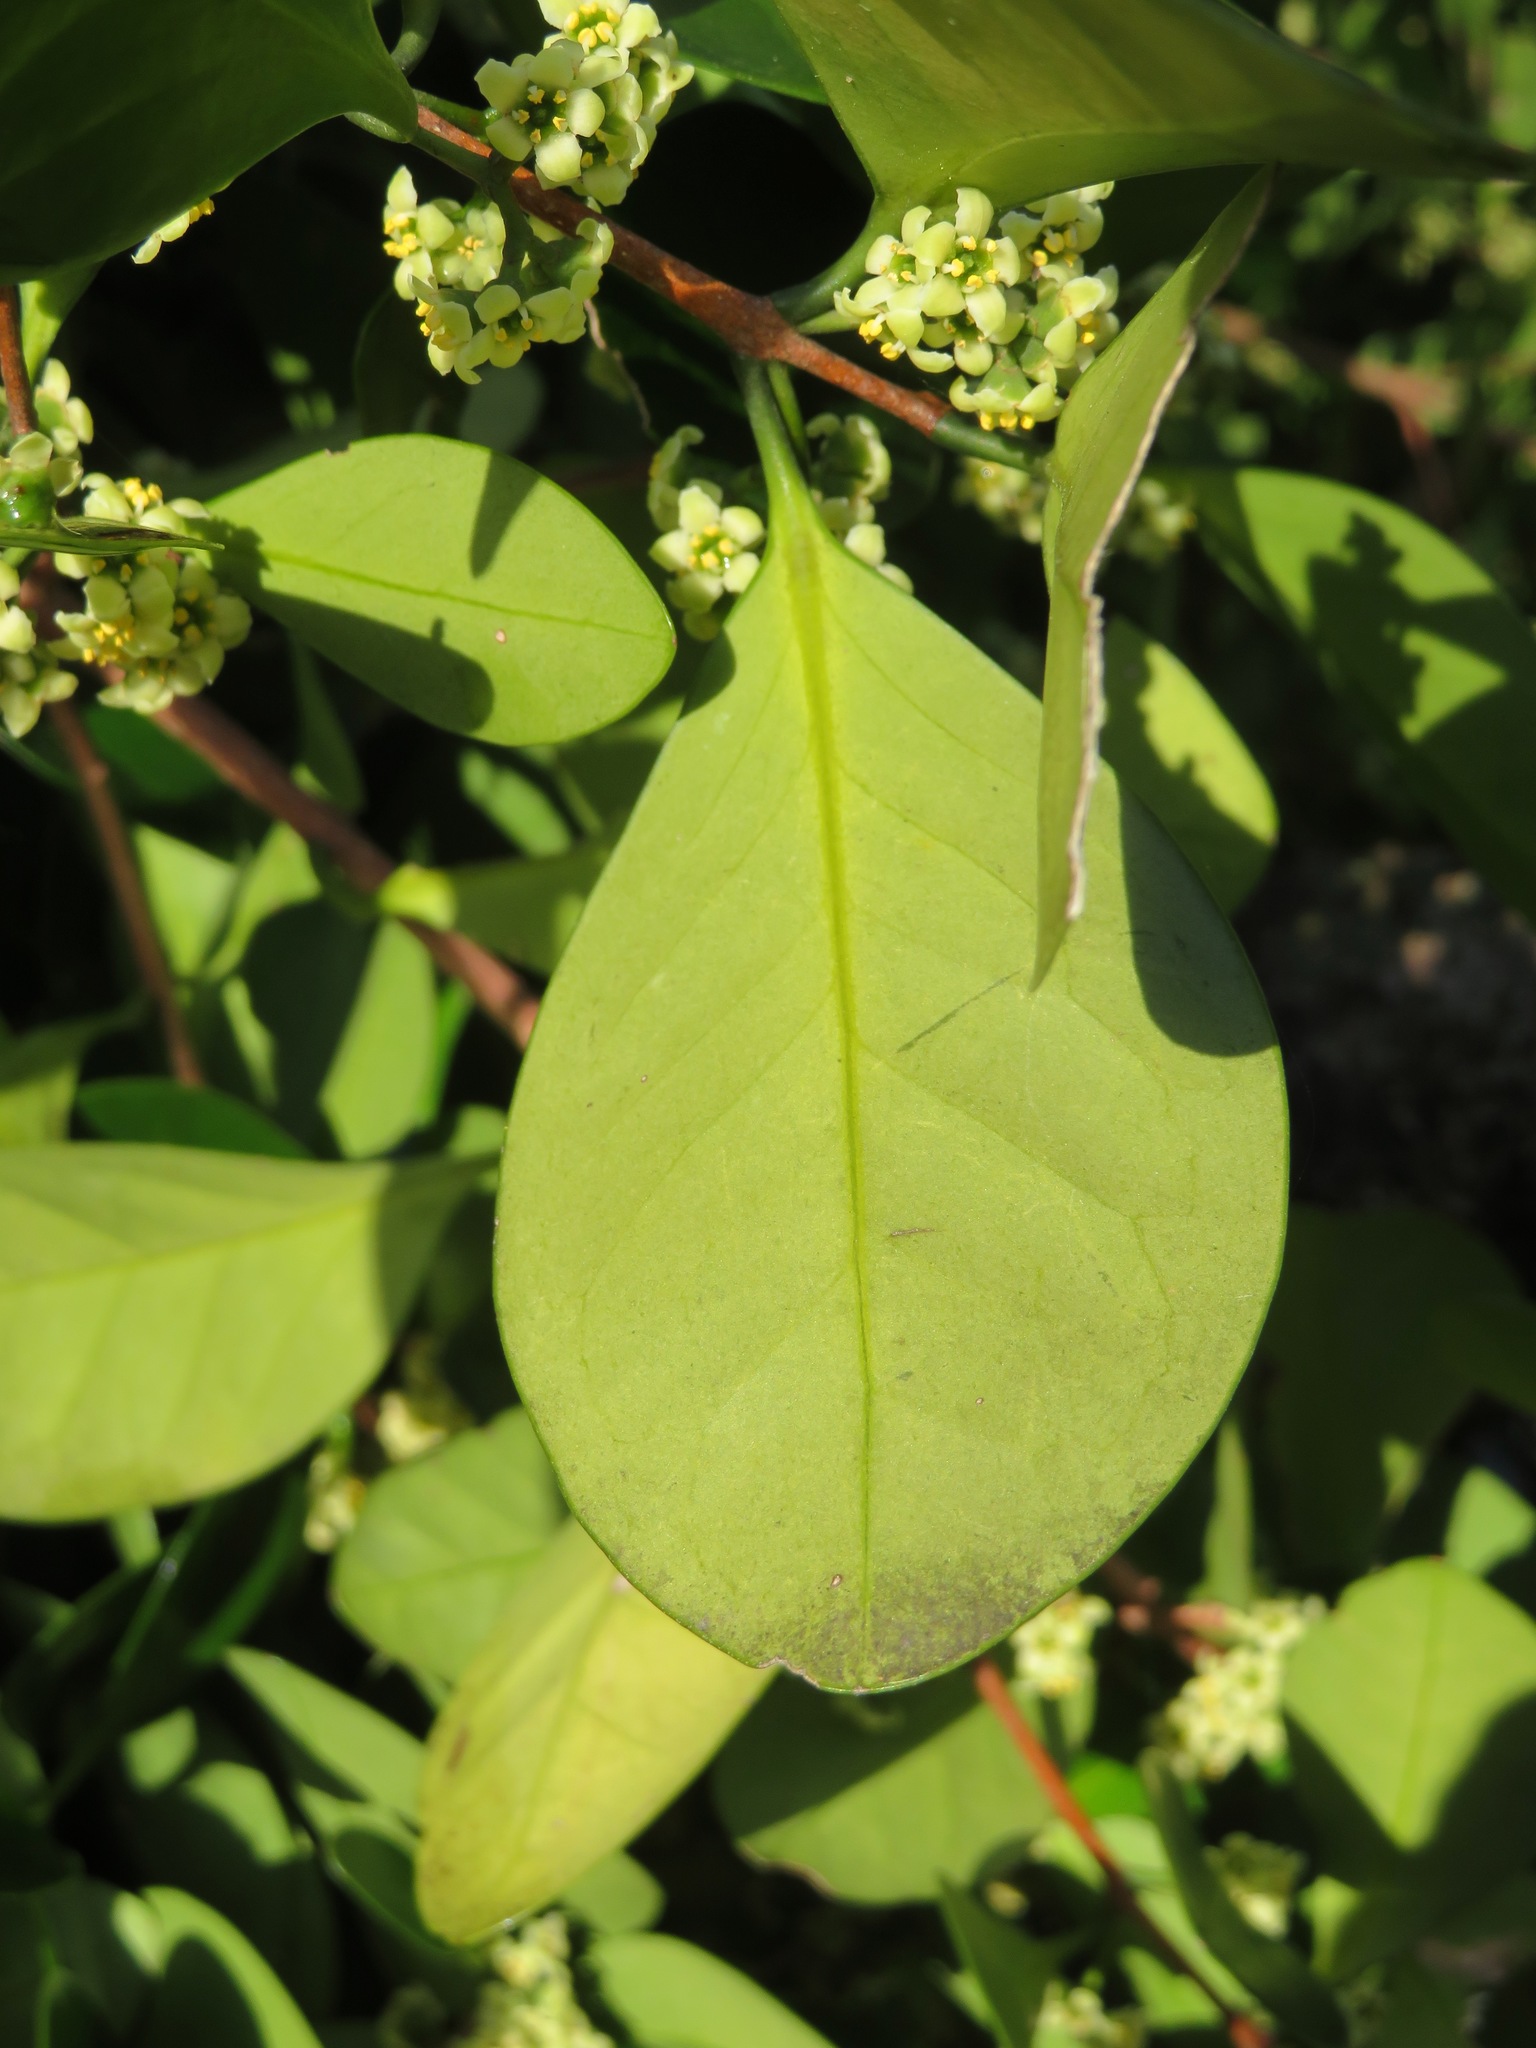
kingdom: Plantae
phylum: Tracheophyta
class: Magnoliopsida
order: Celastrales
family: Celastraceae
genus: Microtropis
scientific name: Microtropis japonica
